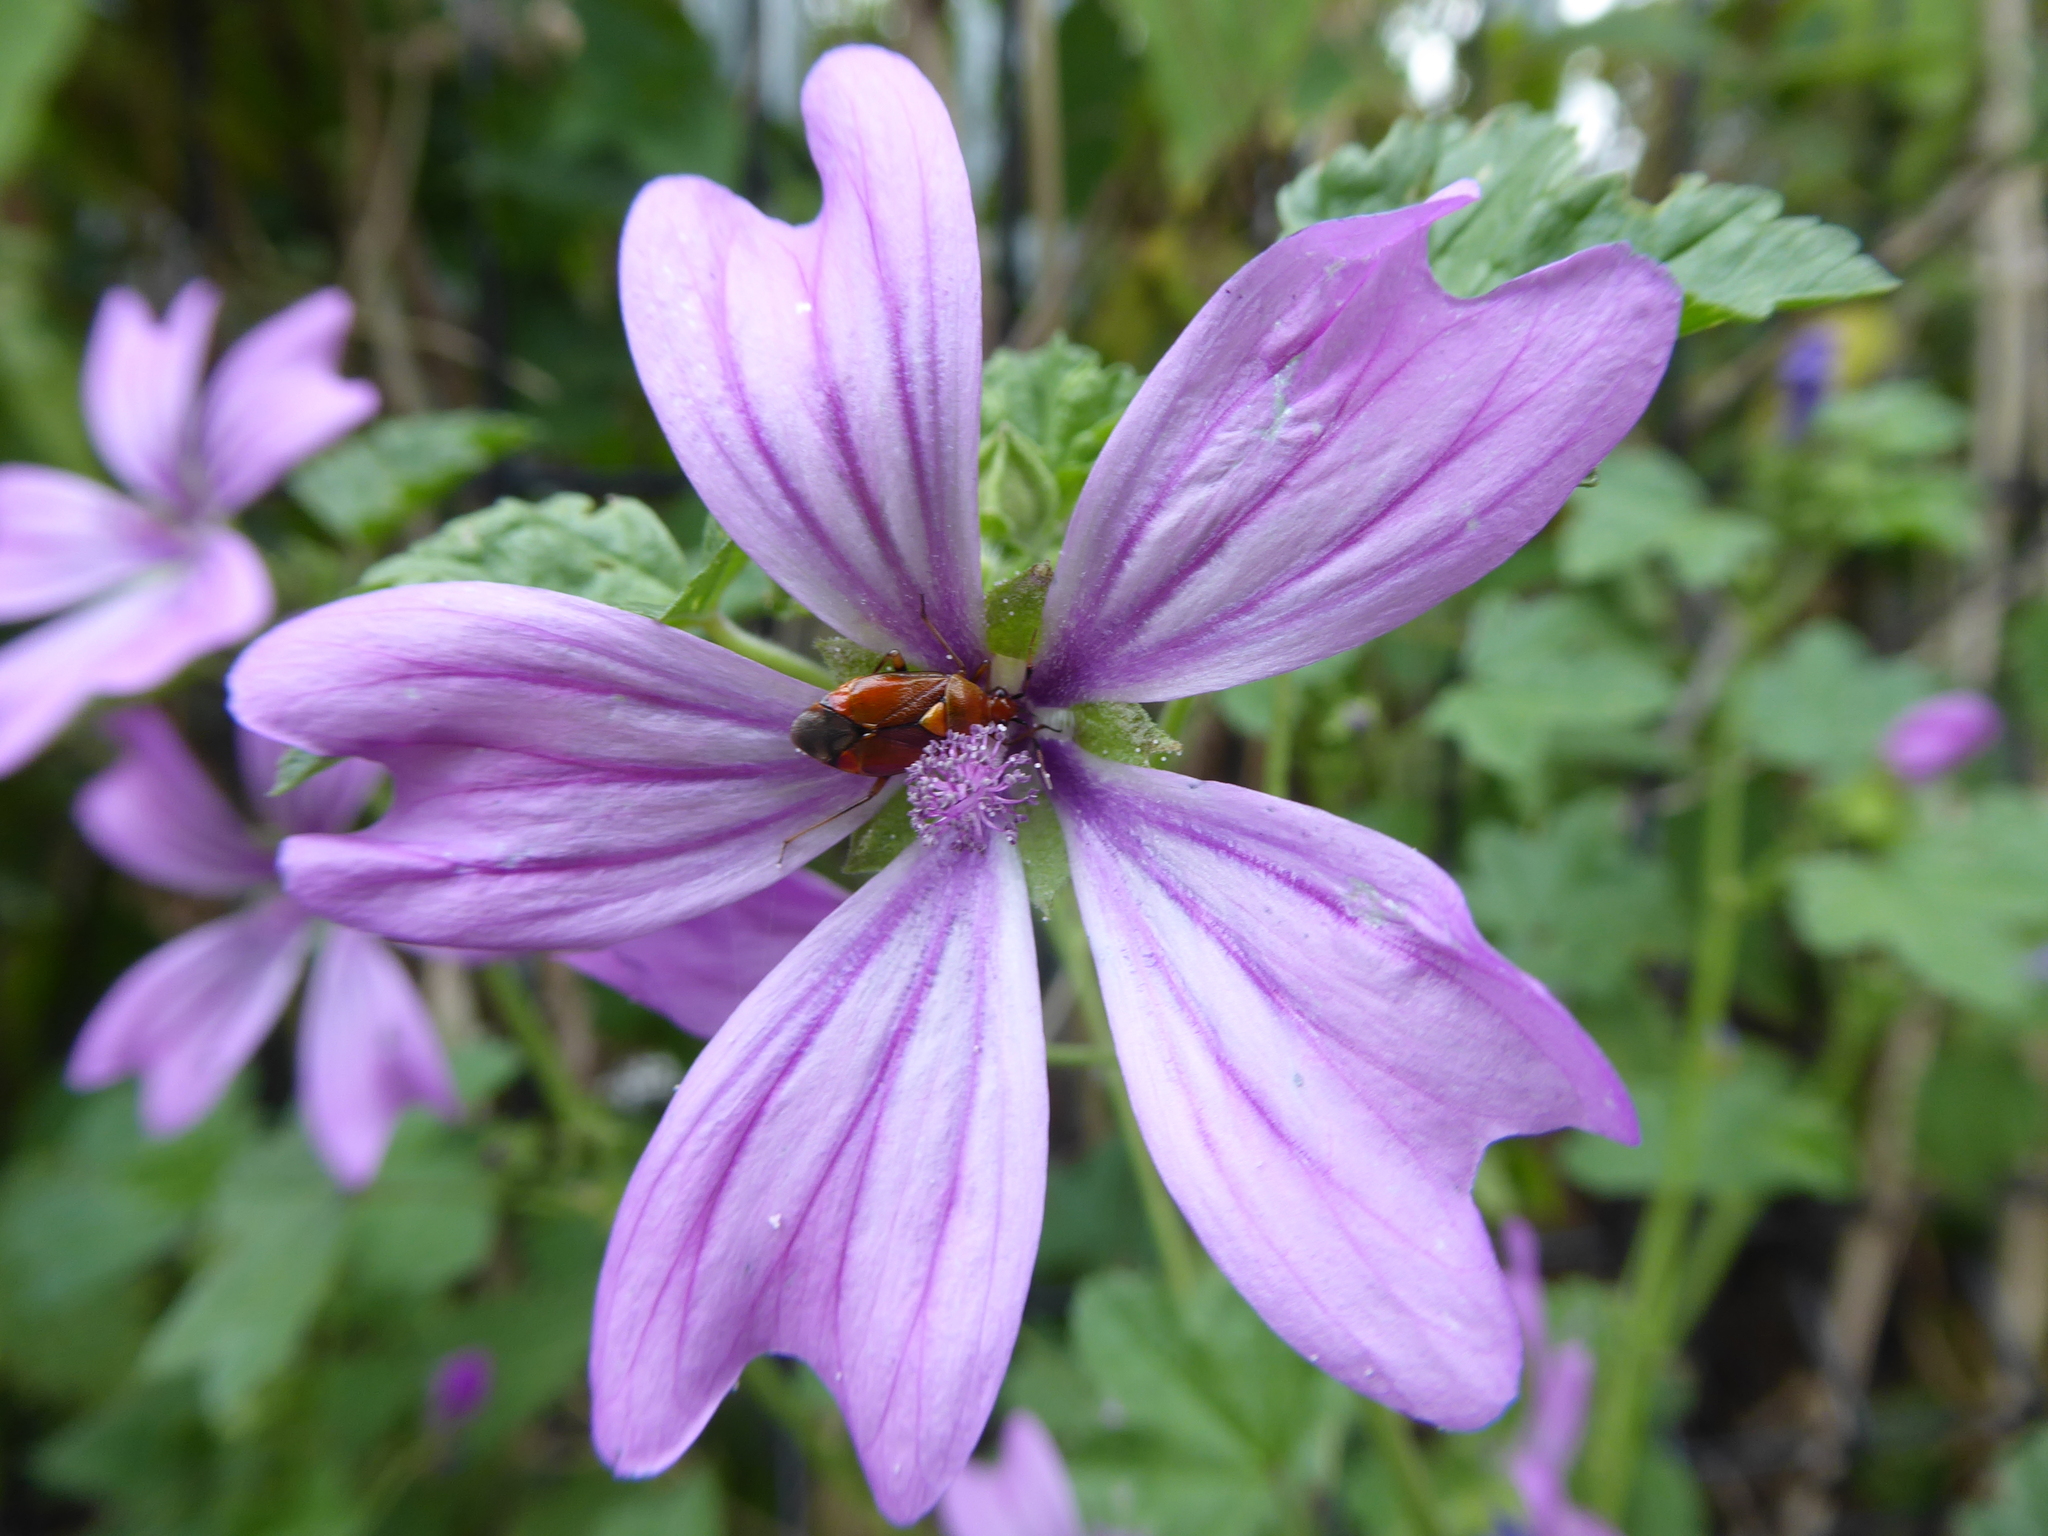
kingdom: Animalia
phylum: Arthropoda
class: Insecta
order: Hemiptera
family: Miridae
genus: Deraeocoris
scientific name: Deraeocoris ruber
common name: Plant bug
